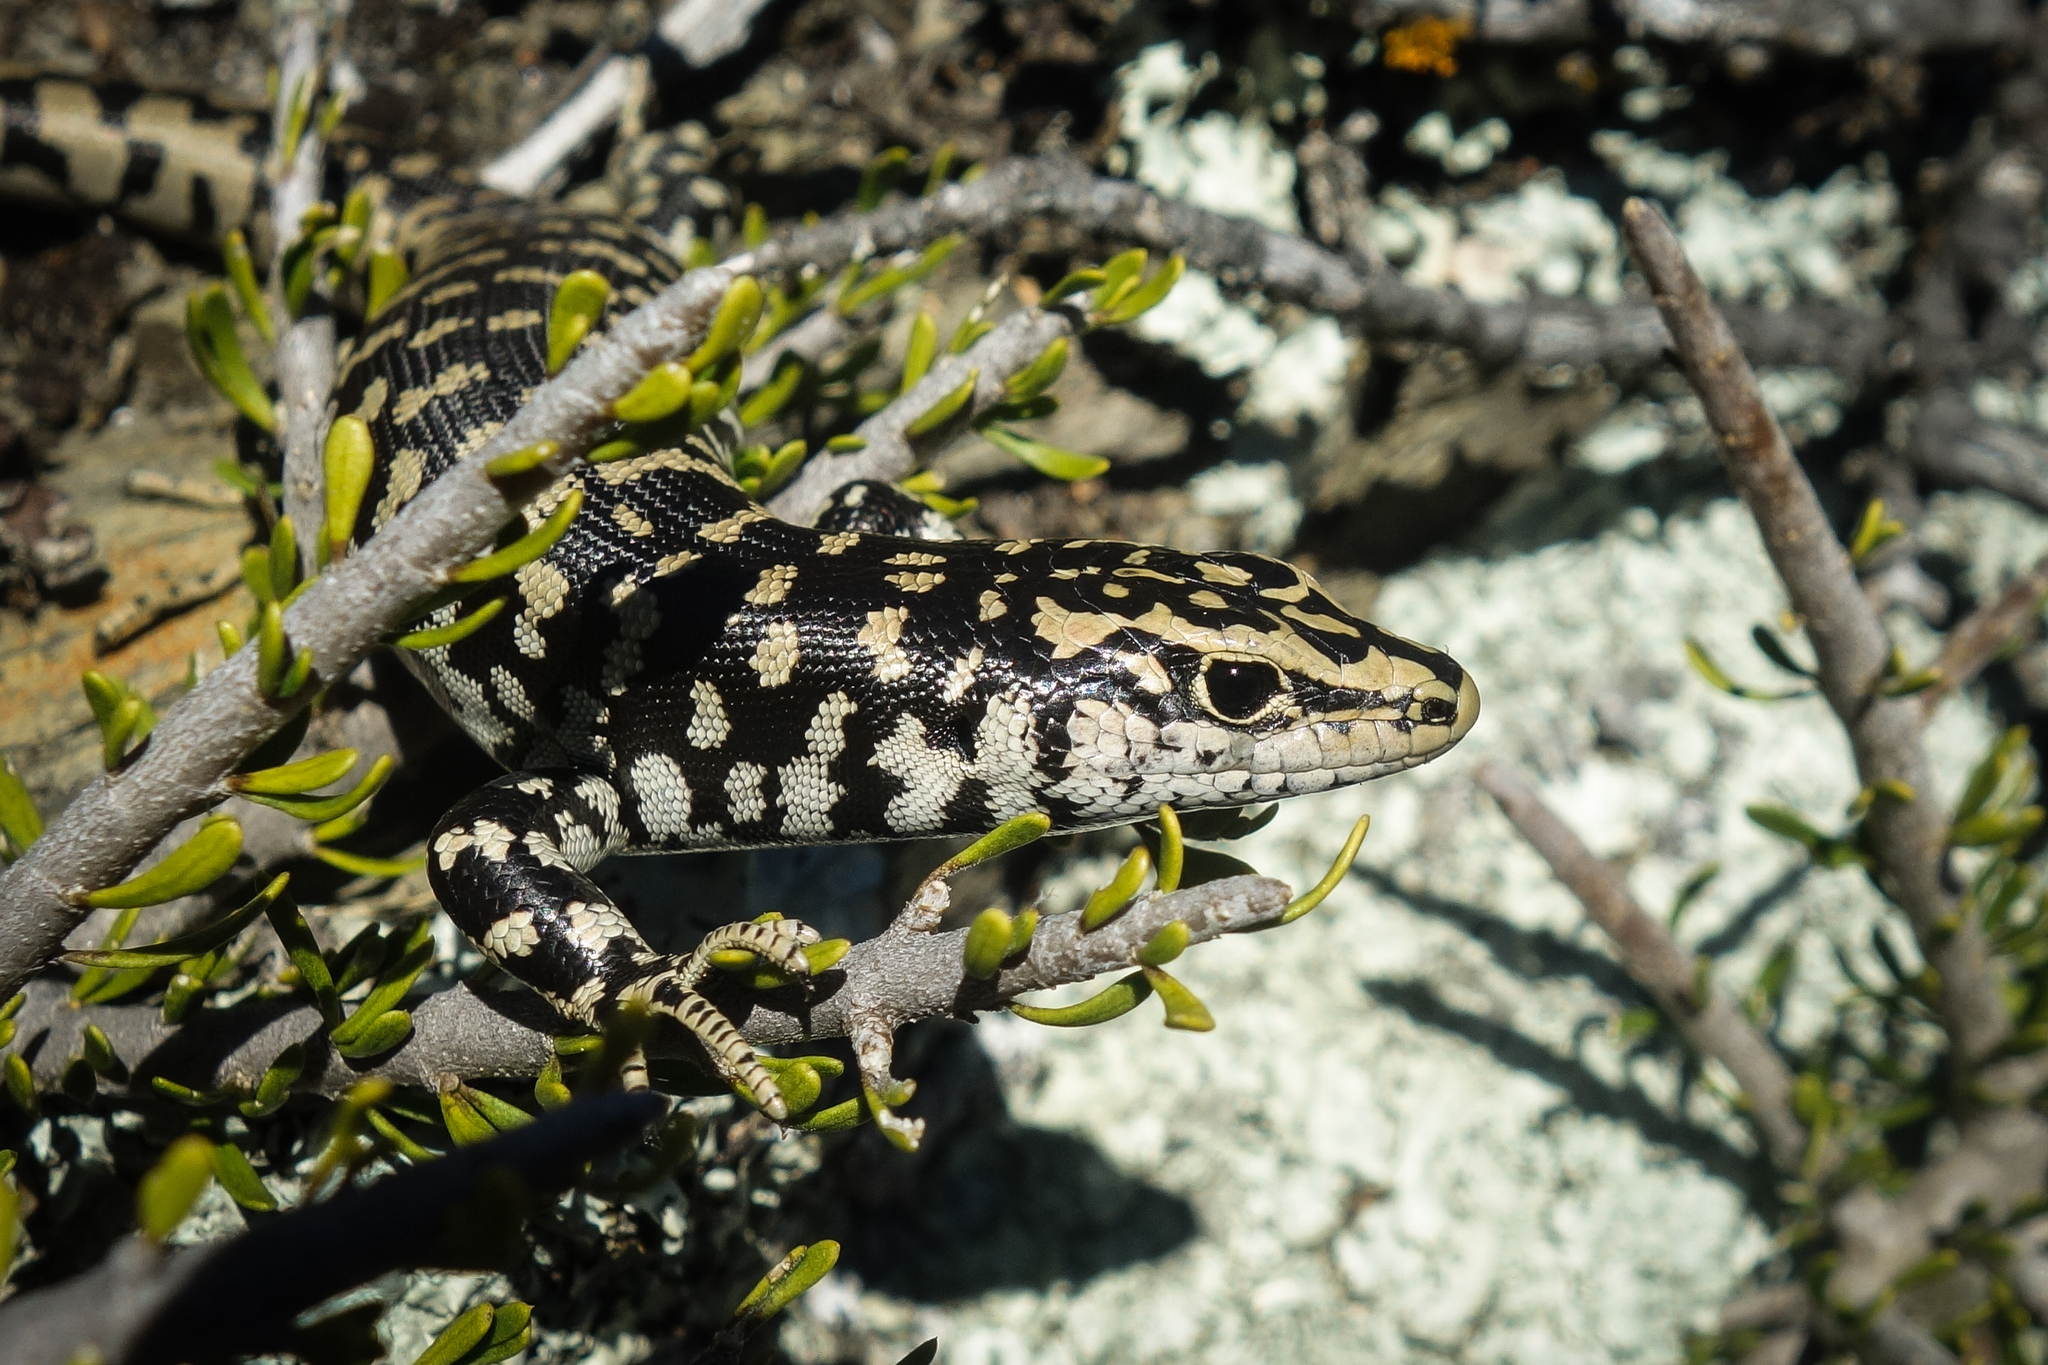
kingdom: Animalia
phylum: Chordata
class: Squamata
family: Scincidae
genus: Oligosoma
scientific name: Oligosoma otagense
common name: Otago skink
